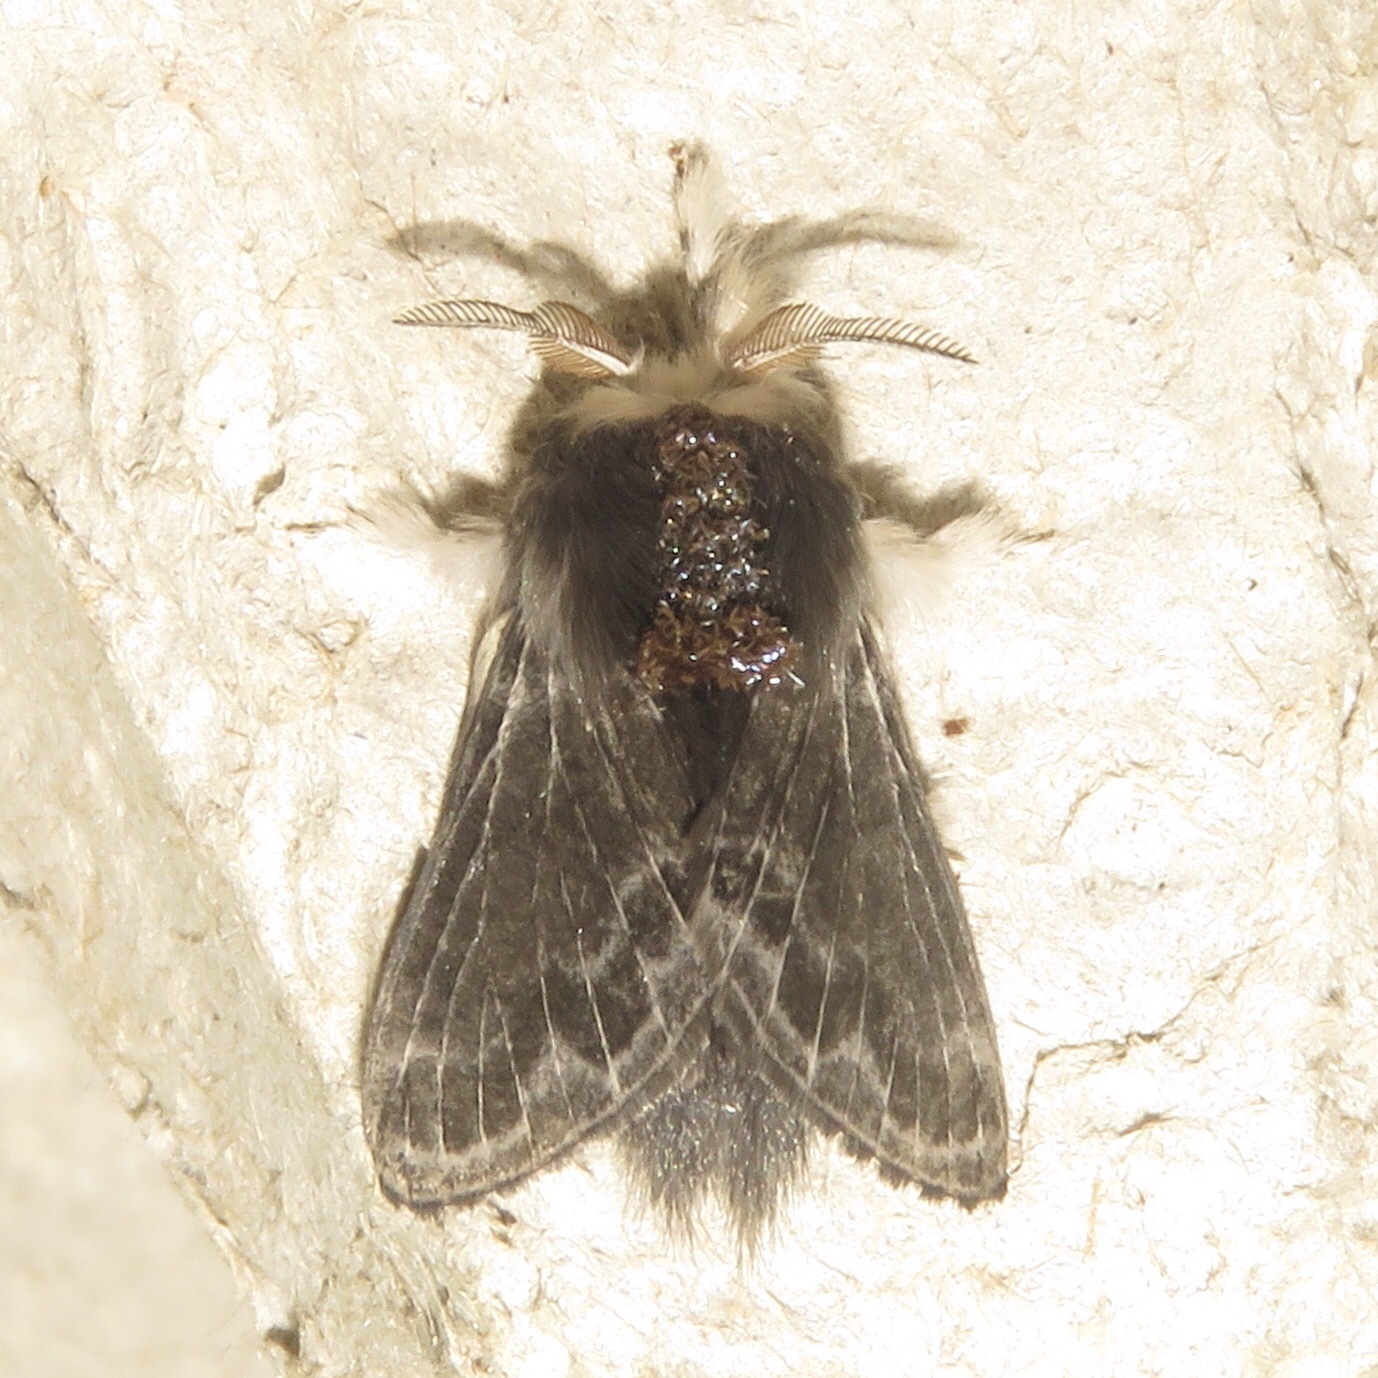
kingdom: Animalia
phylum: Arthropoda
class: Insecta
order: Lepidoptera
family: Lasiocampidae
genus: Tolype
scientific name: Tolype laricis
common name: Larch tolype moth
